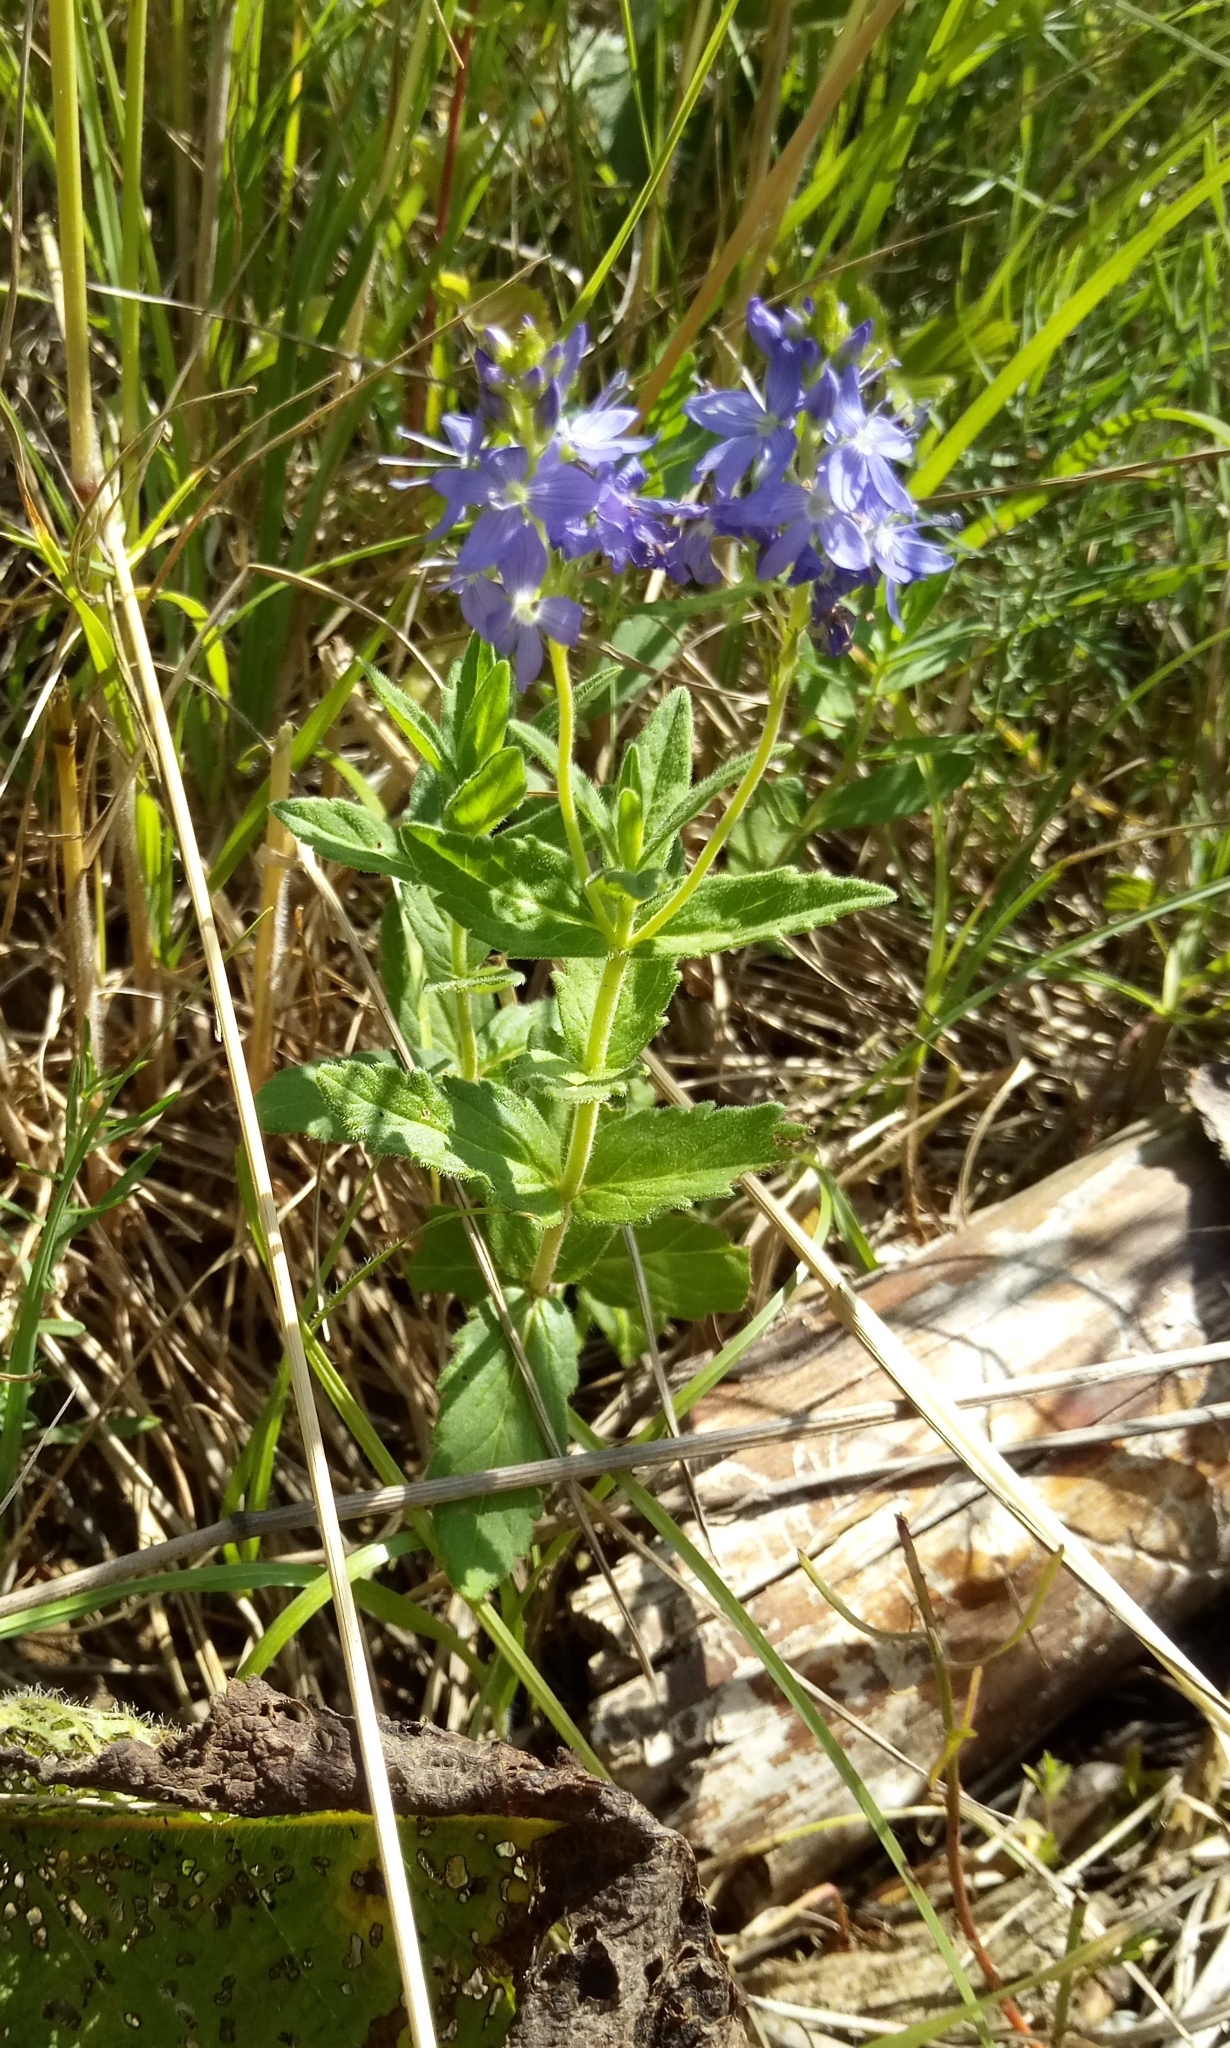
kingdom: Plantae
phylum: Tracheophyta
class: Magnoliopsida
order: Lamiales
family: Plantaginaceae
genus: Veronica
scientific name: Veronica teucrium
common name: Large speedwell
